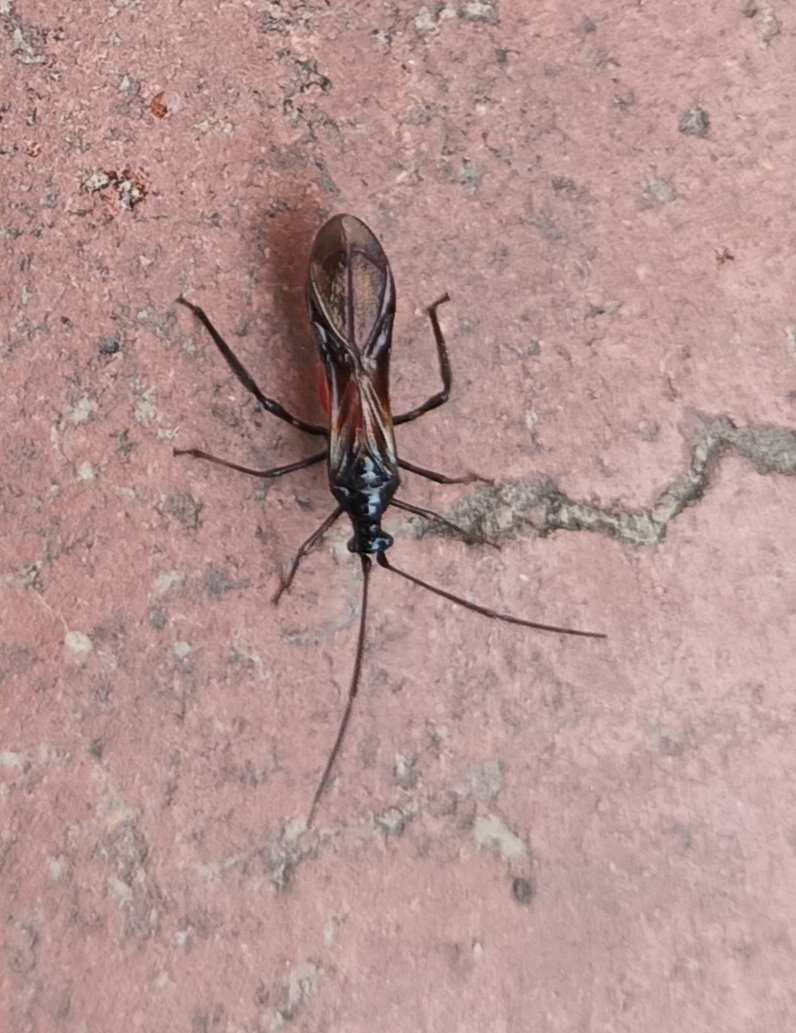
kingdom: Animalia
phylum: Arthropoda
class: Insecta
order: Hemiptera
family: Miridae
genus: Monalonion
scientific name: Monalonion velezangeli
